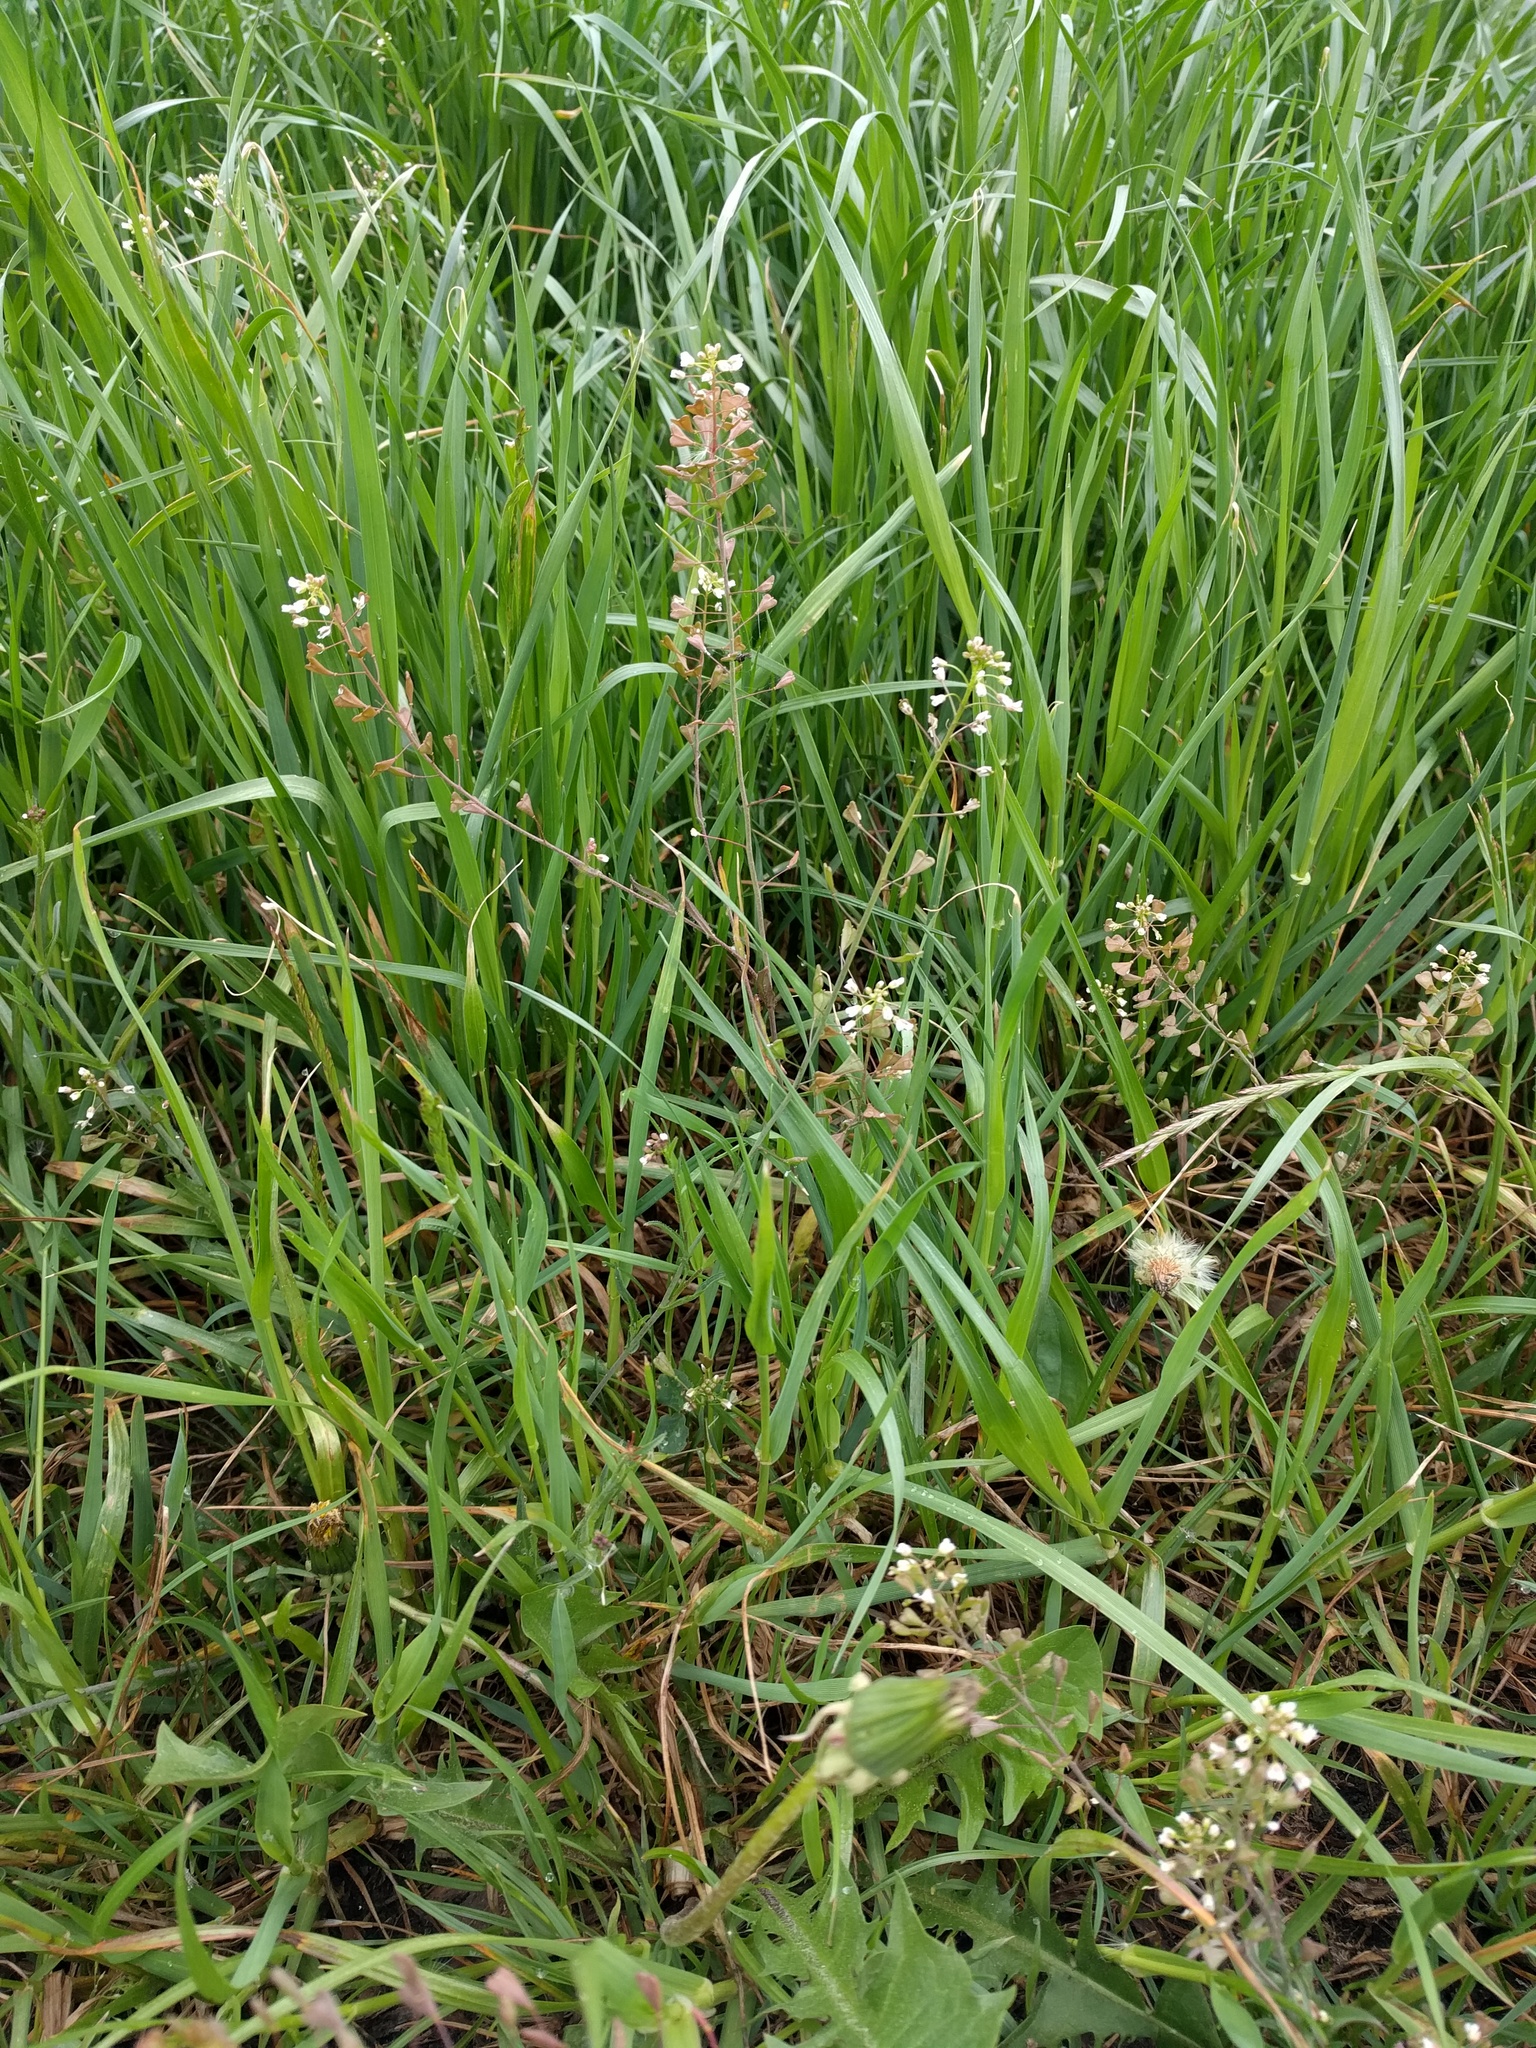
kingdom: Plantae
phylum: Tracheophyta
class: Magnoliopsida
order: Brassicales
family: Brassicaceae
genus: Capsella
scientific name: Capsella bursa-pastoris
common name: Shepherd's purse
